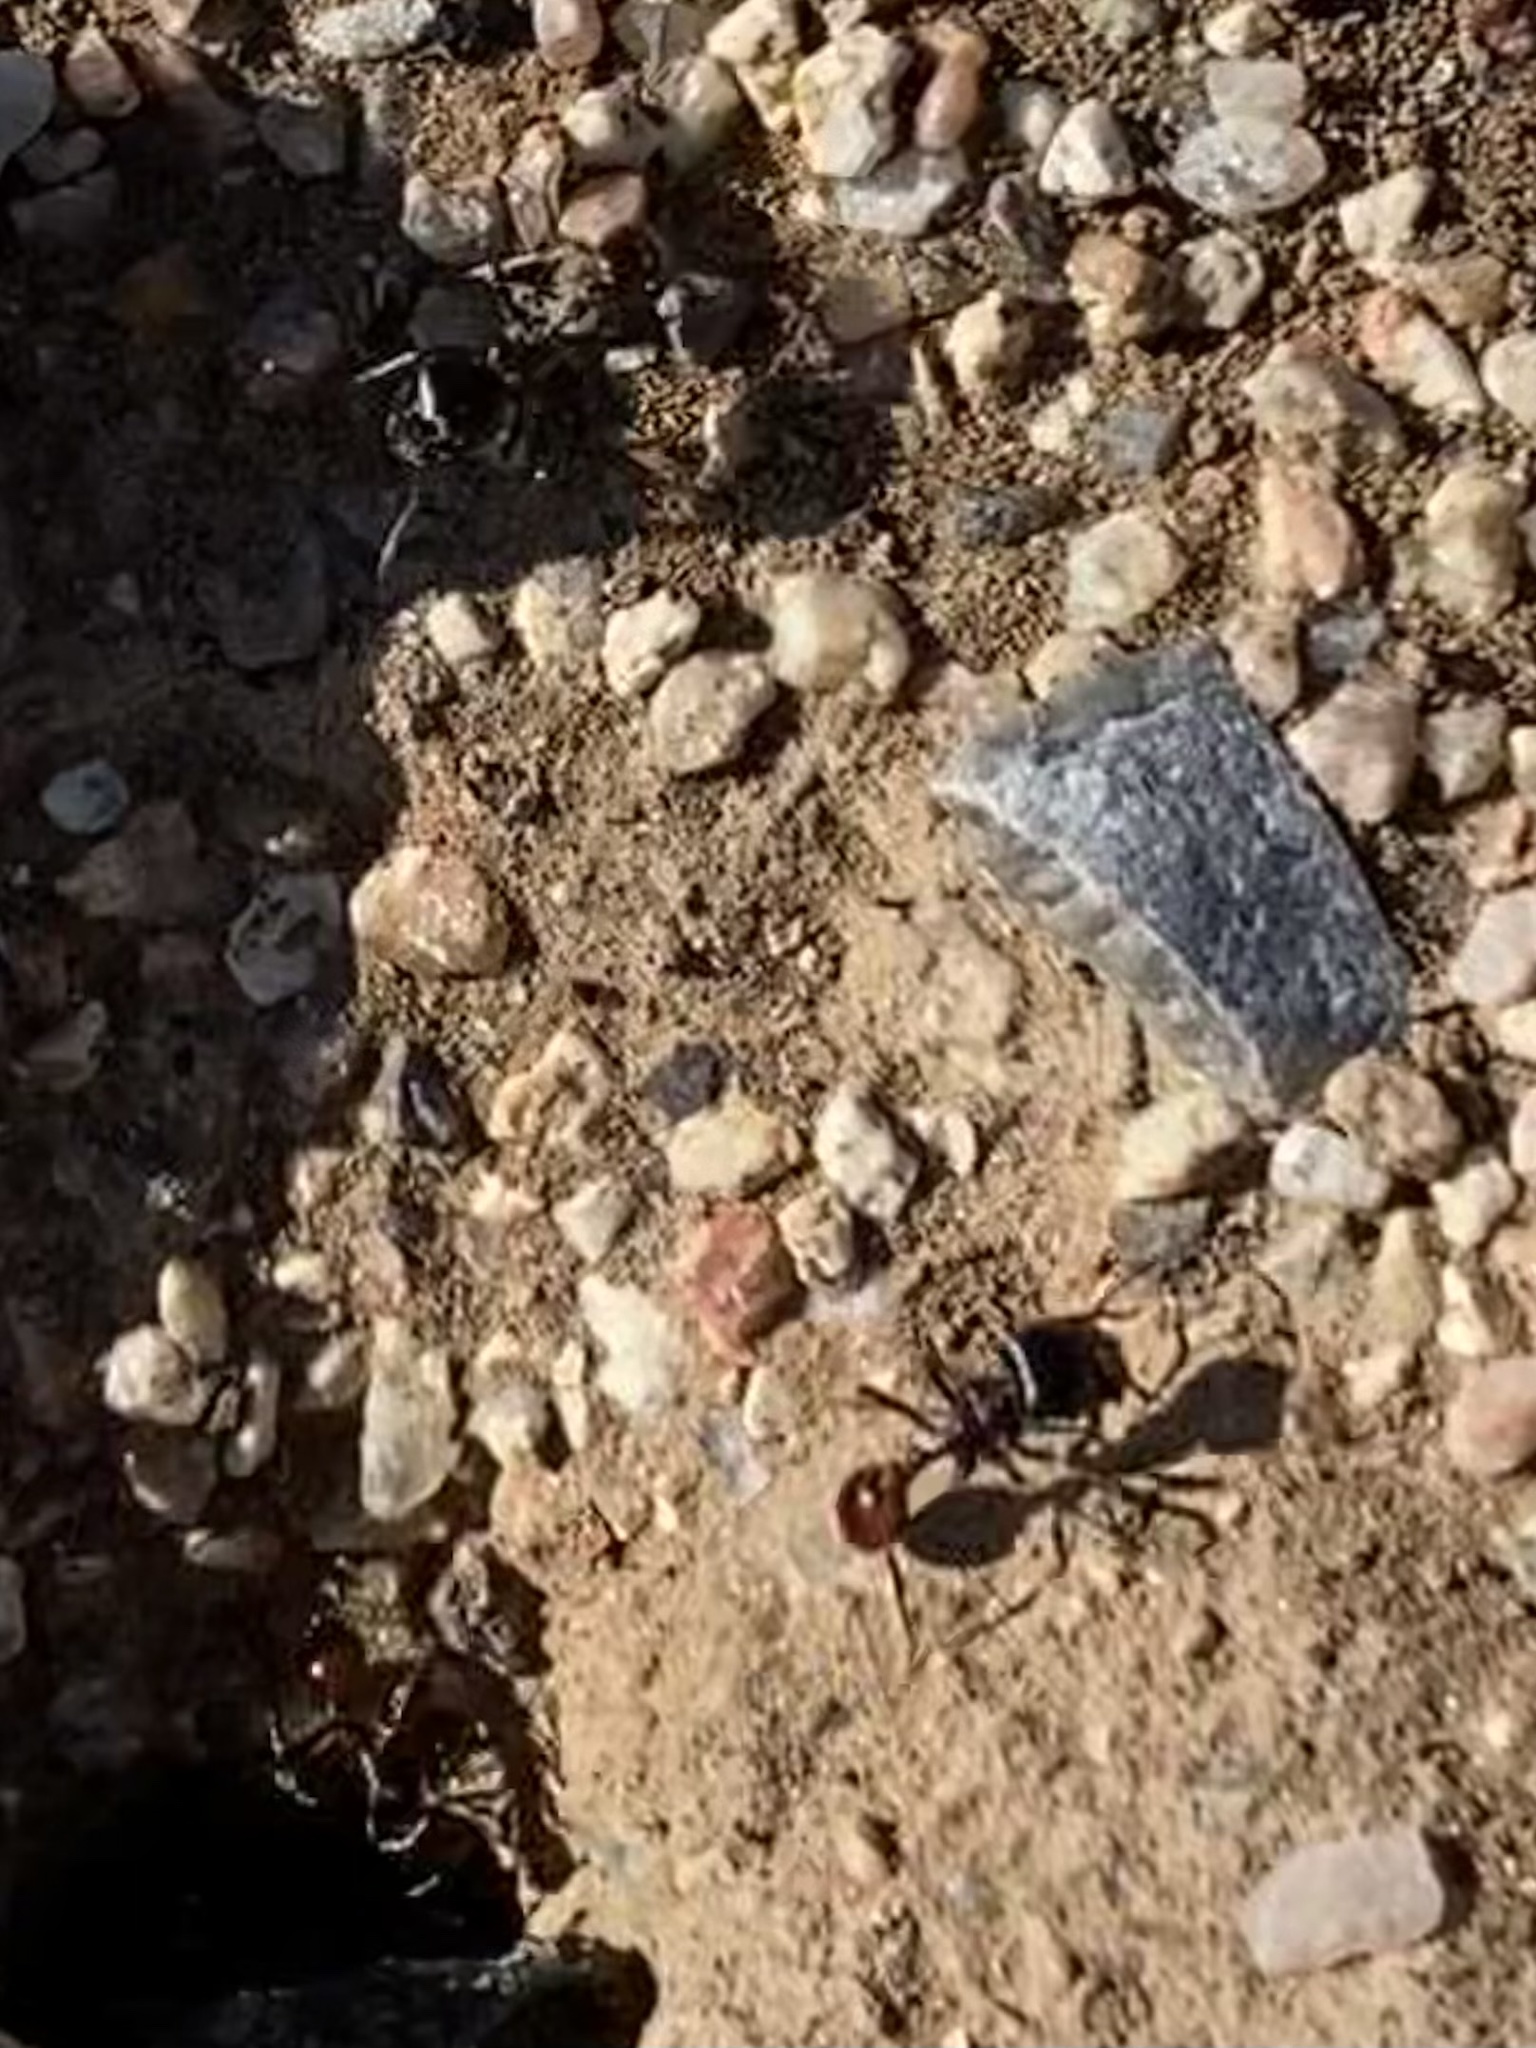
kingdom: Animalia
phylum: Arthropoda
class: Insecta
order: Hymenoptera
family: Formicidae
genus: Pogonomyrmex
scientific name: Pogonomyrmex rugosus
